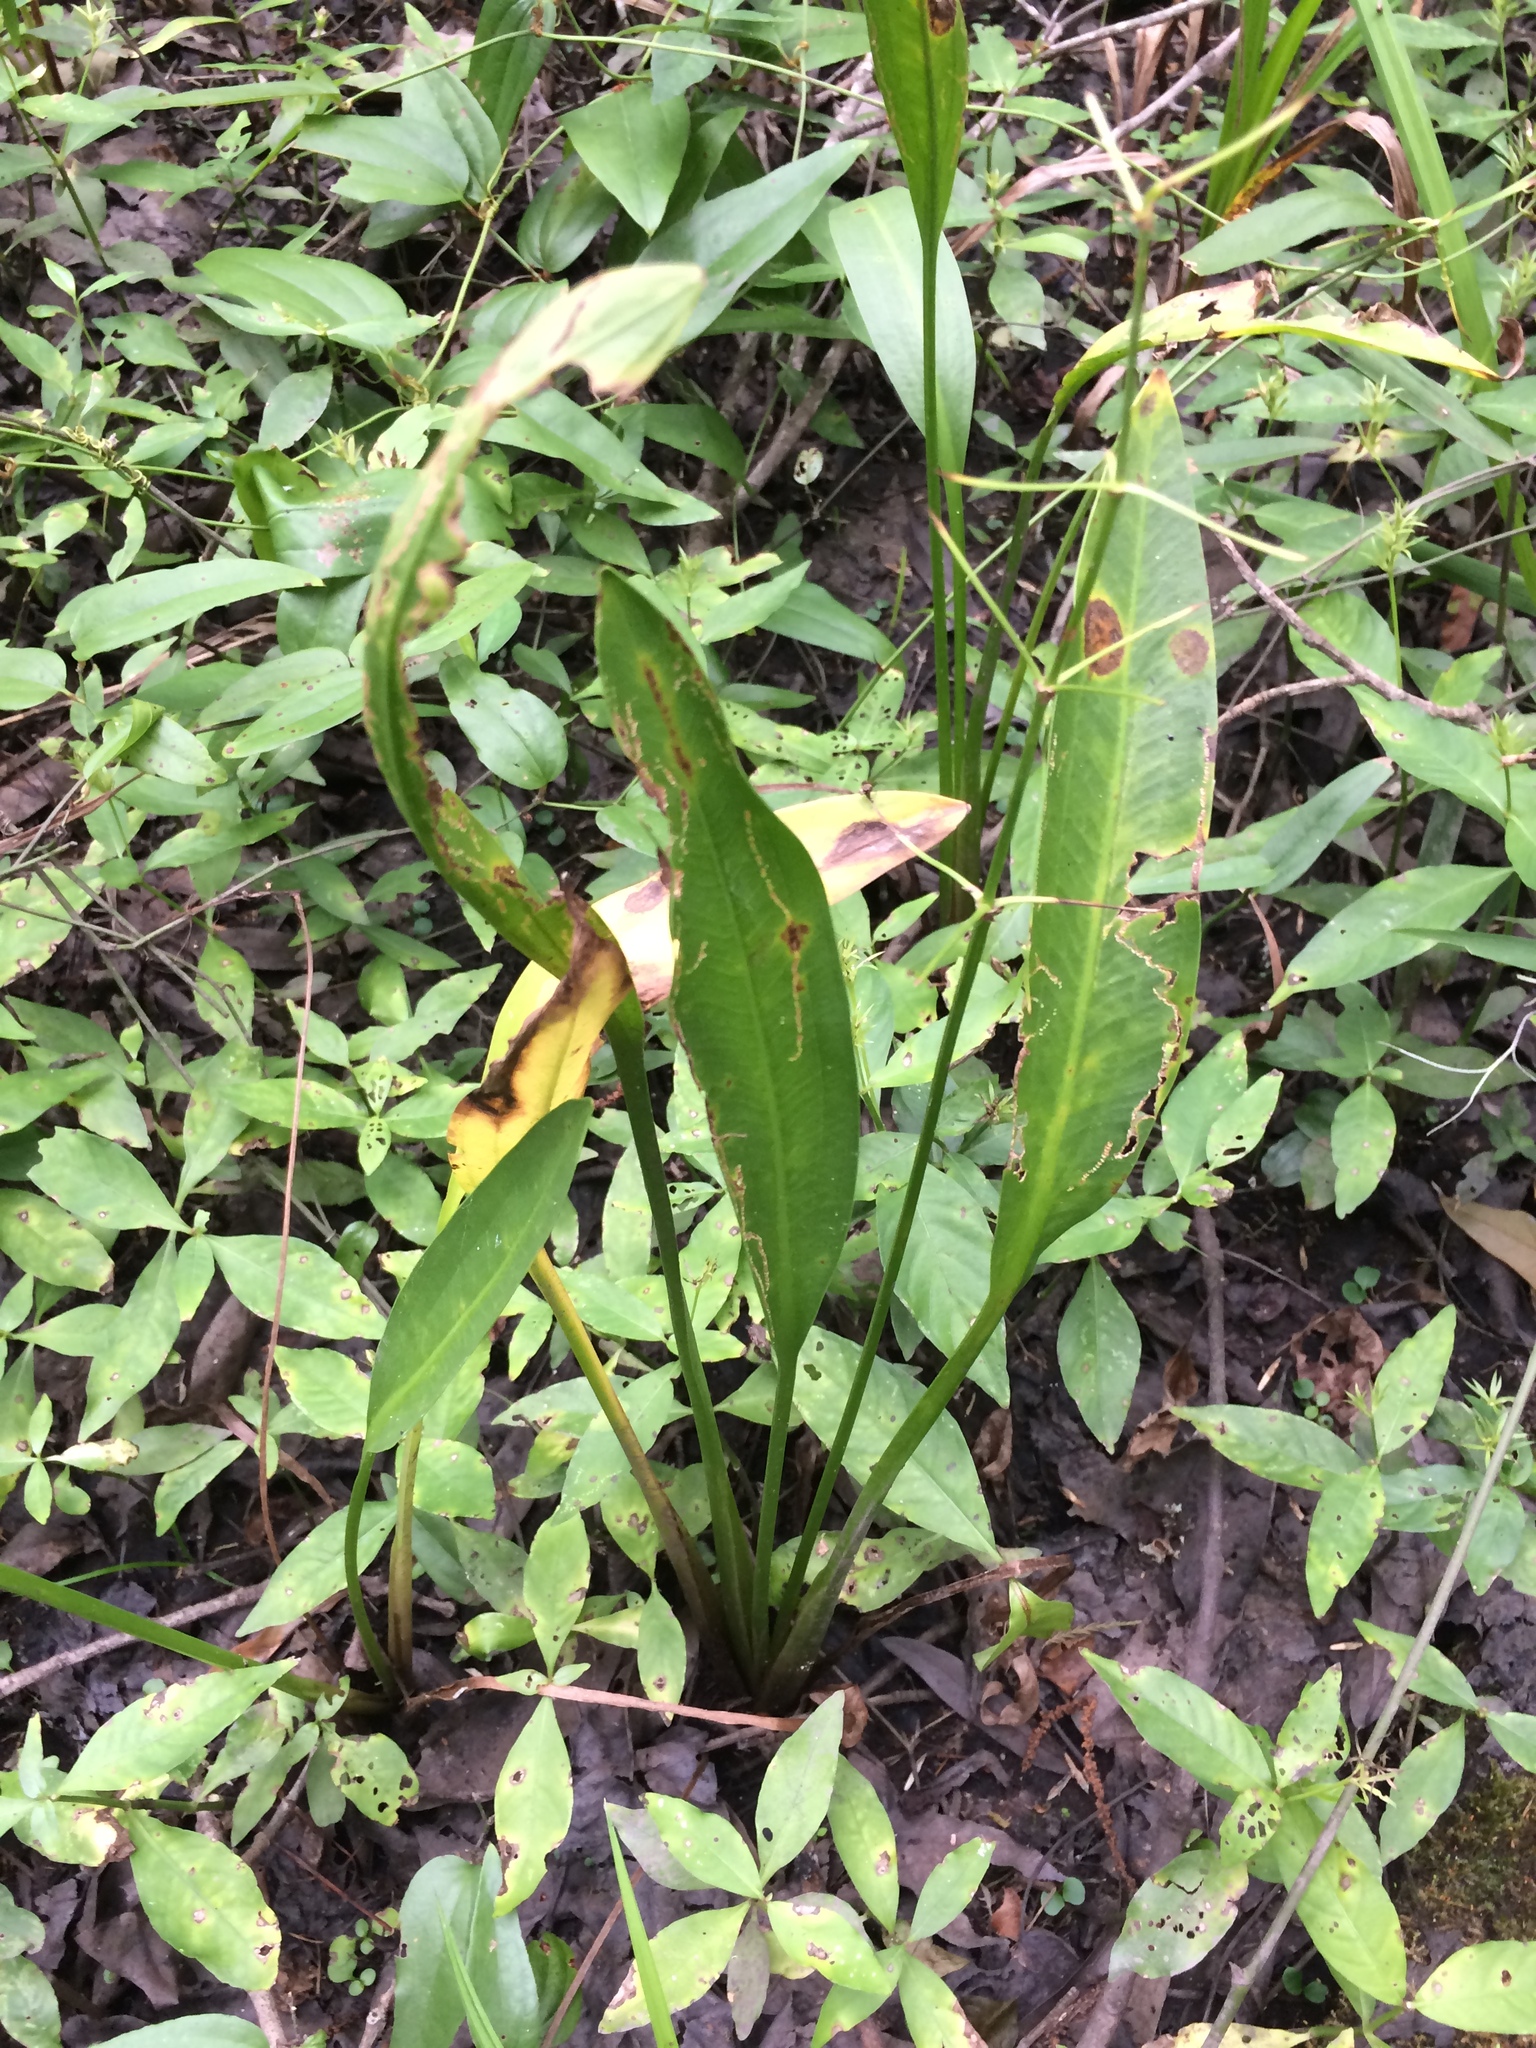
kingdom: Plantae
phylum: Tracheophyta
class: Magnoliopsida
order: Lamiales
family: Acanthaceae
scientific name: Acanthaceae
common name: Acanthaceae
